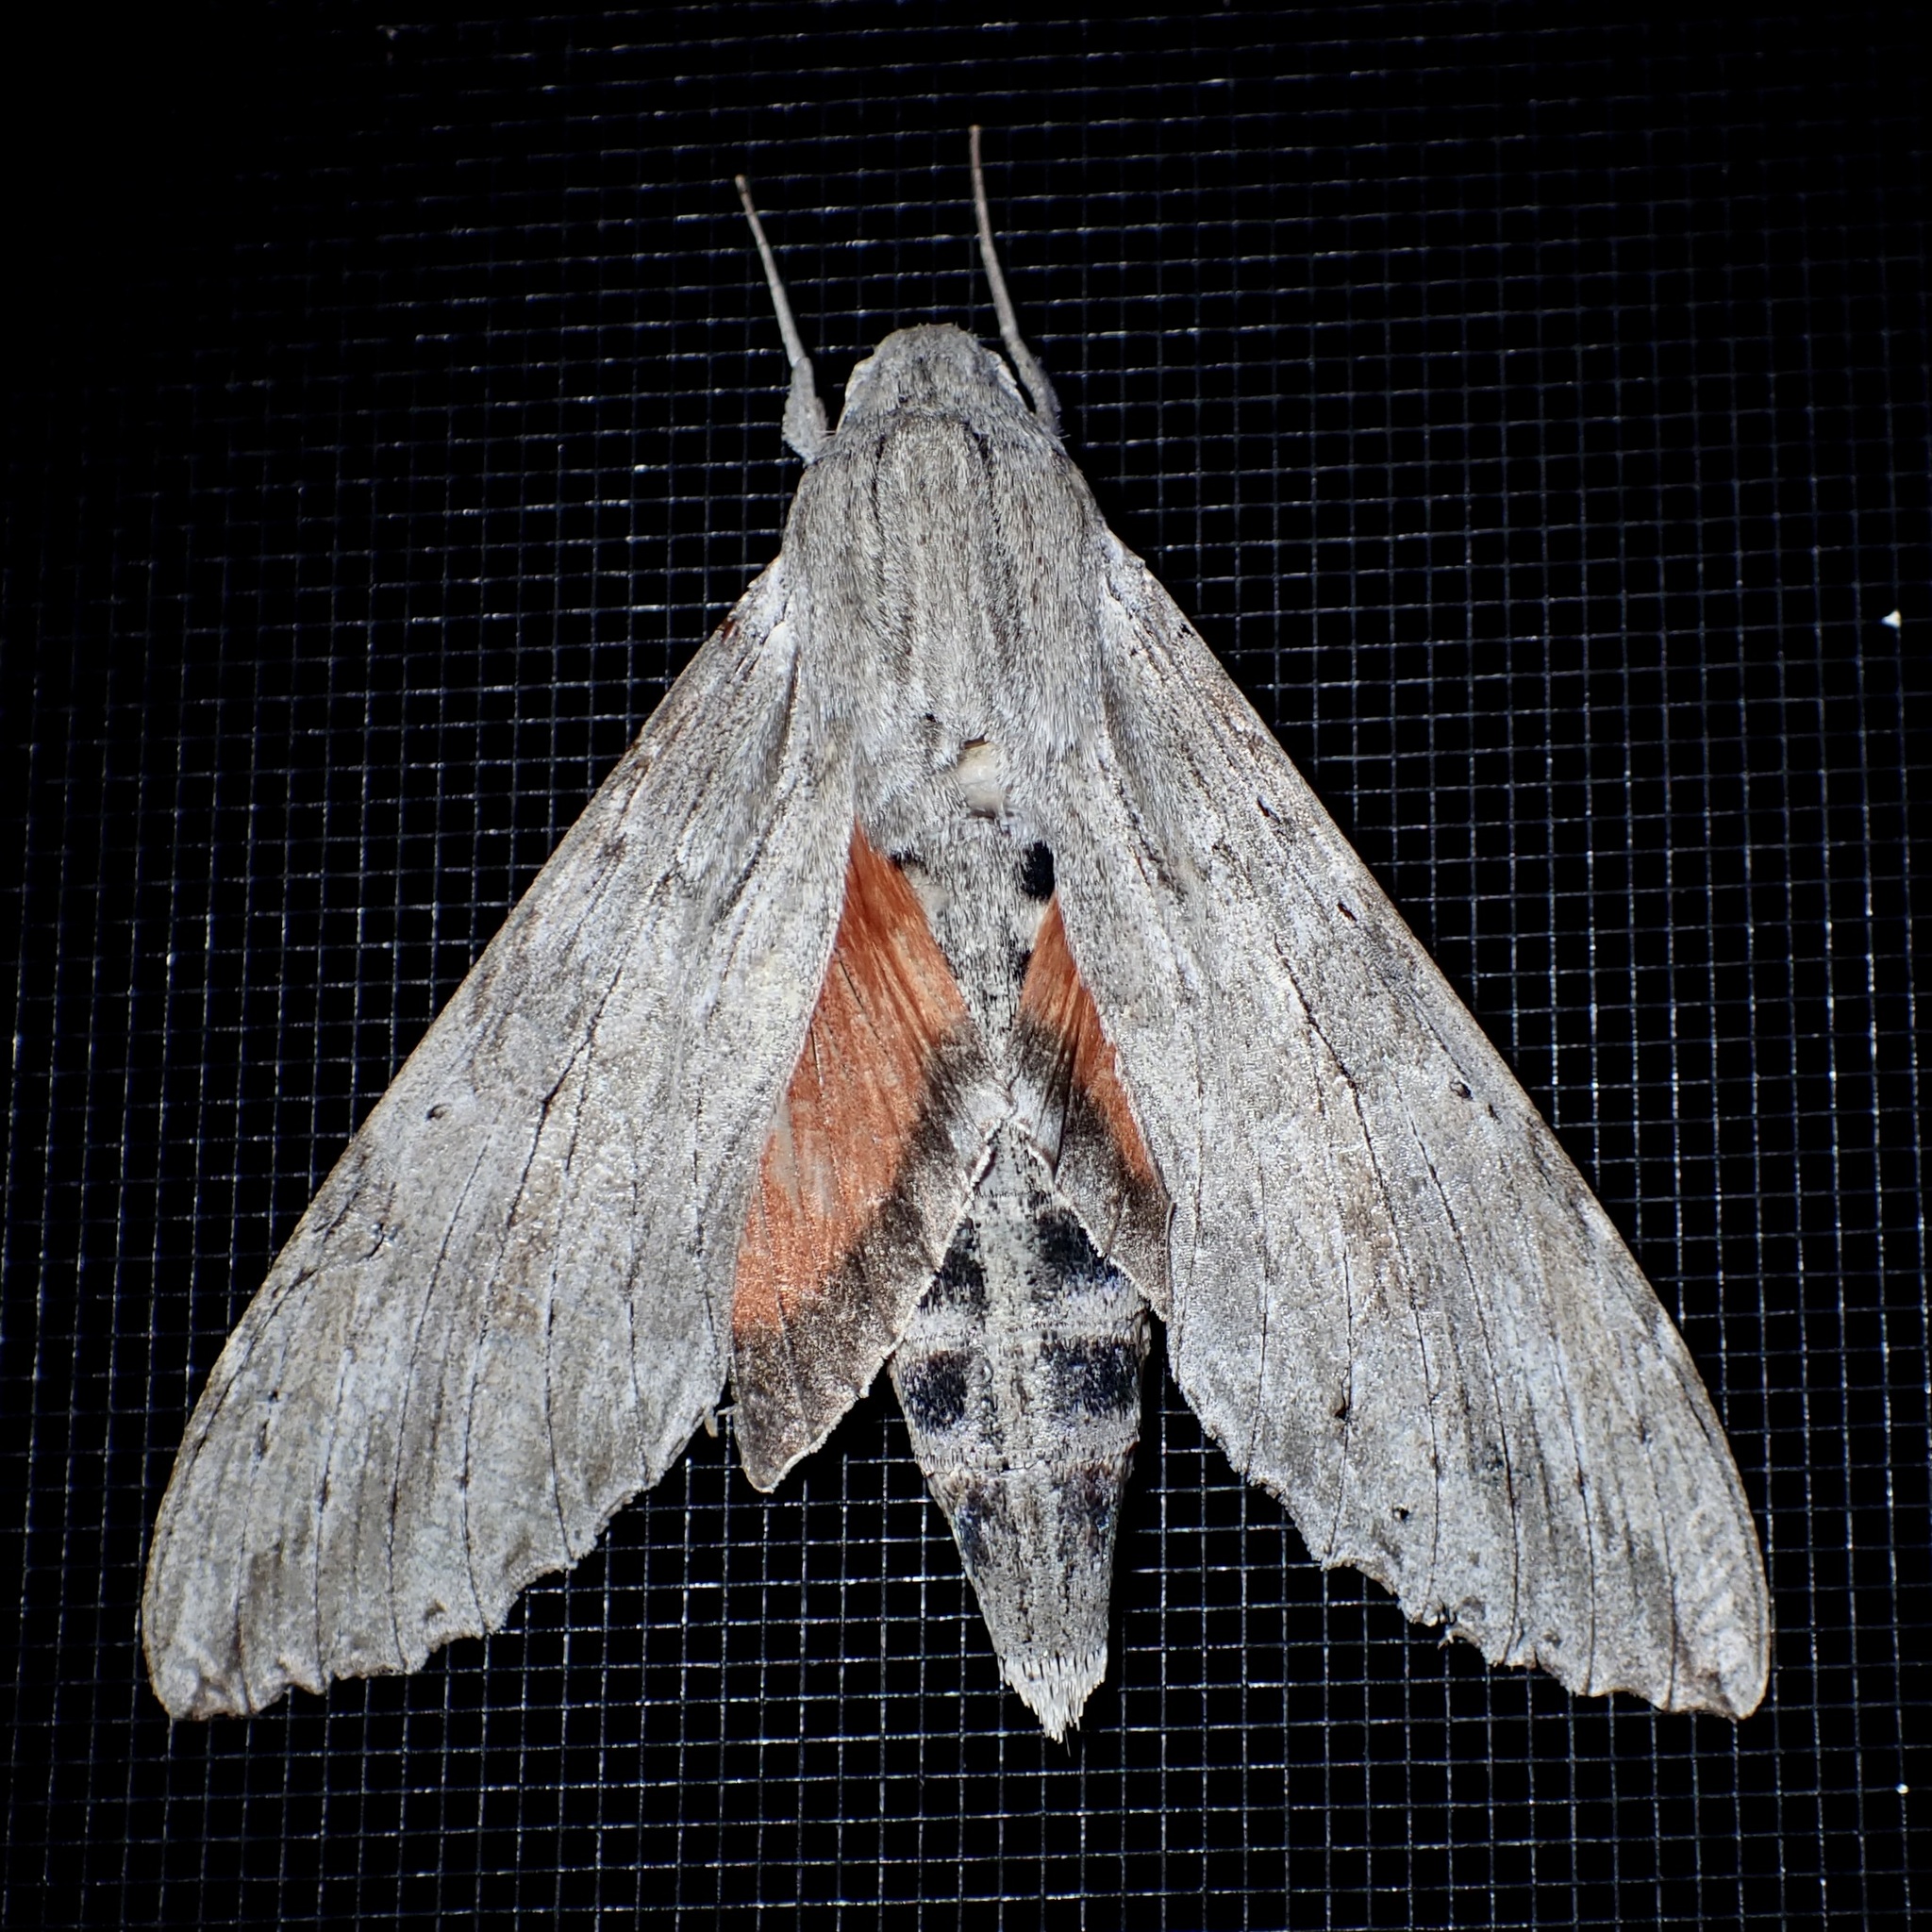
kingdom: Animalia
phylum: Arthropoda
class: Insecta
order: Lepidoptera
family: Sphingidae
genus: Erinnyis
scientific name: Erinnyis ello
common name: Ello sphinx
